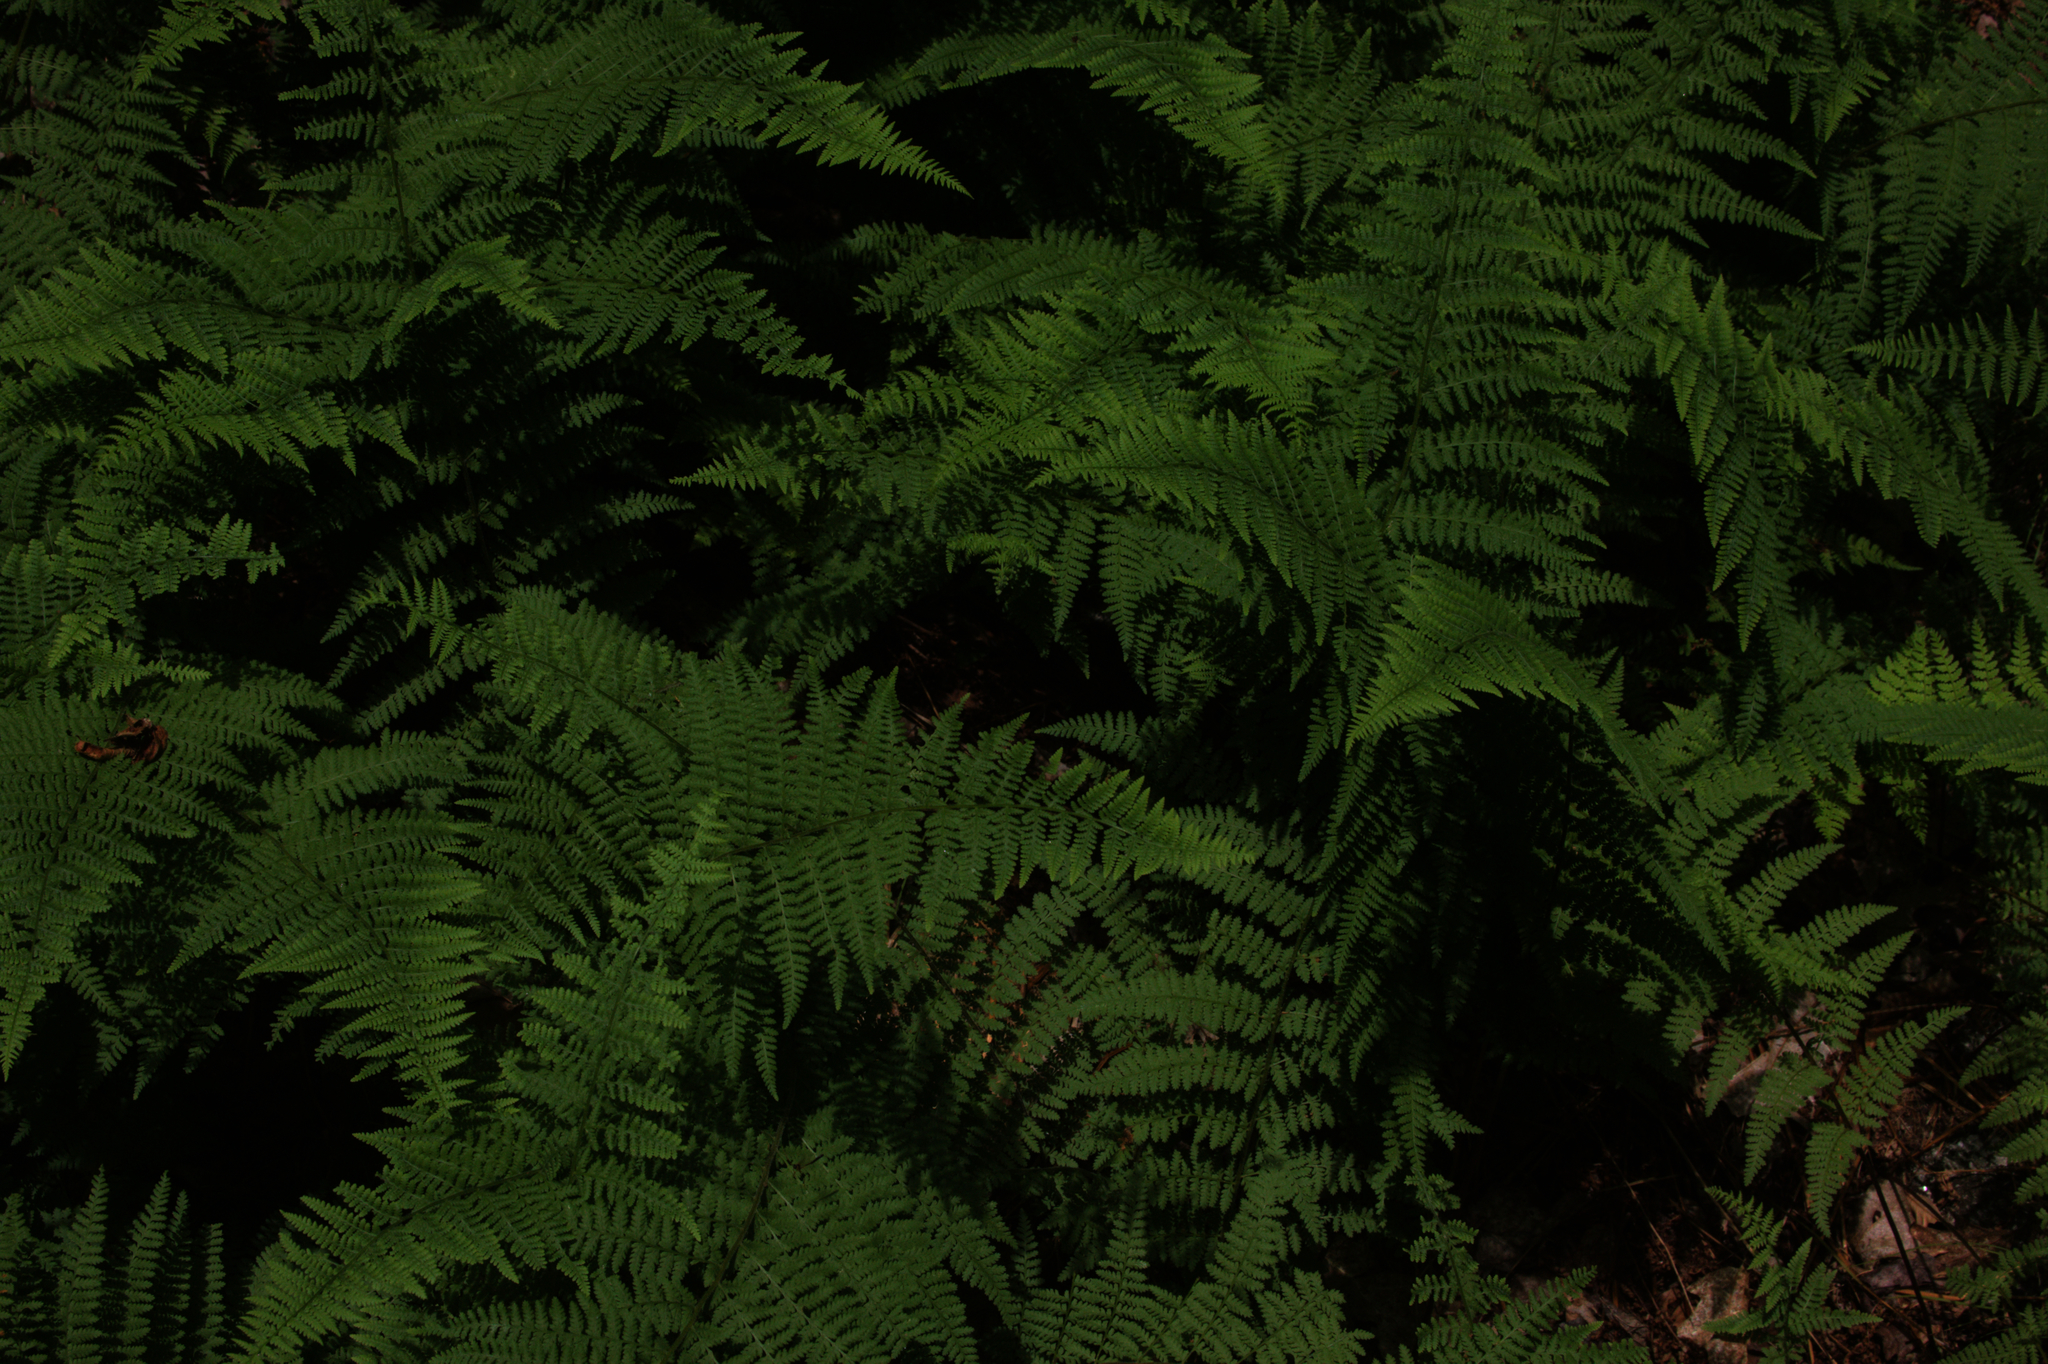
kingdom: Plantae
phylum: Tracheophyta
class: Polypodiopsida
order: Polypodiales
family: Dennstaedtiaceae
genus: Sitobolium
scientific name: Sitobolium punctilobum
